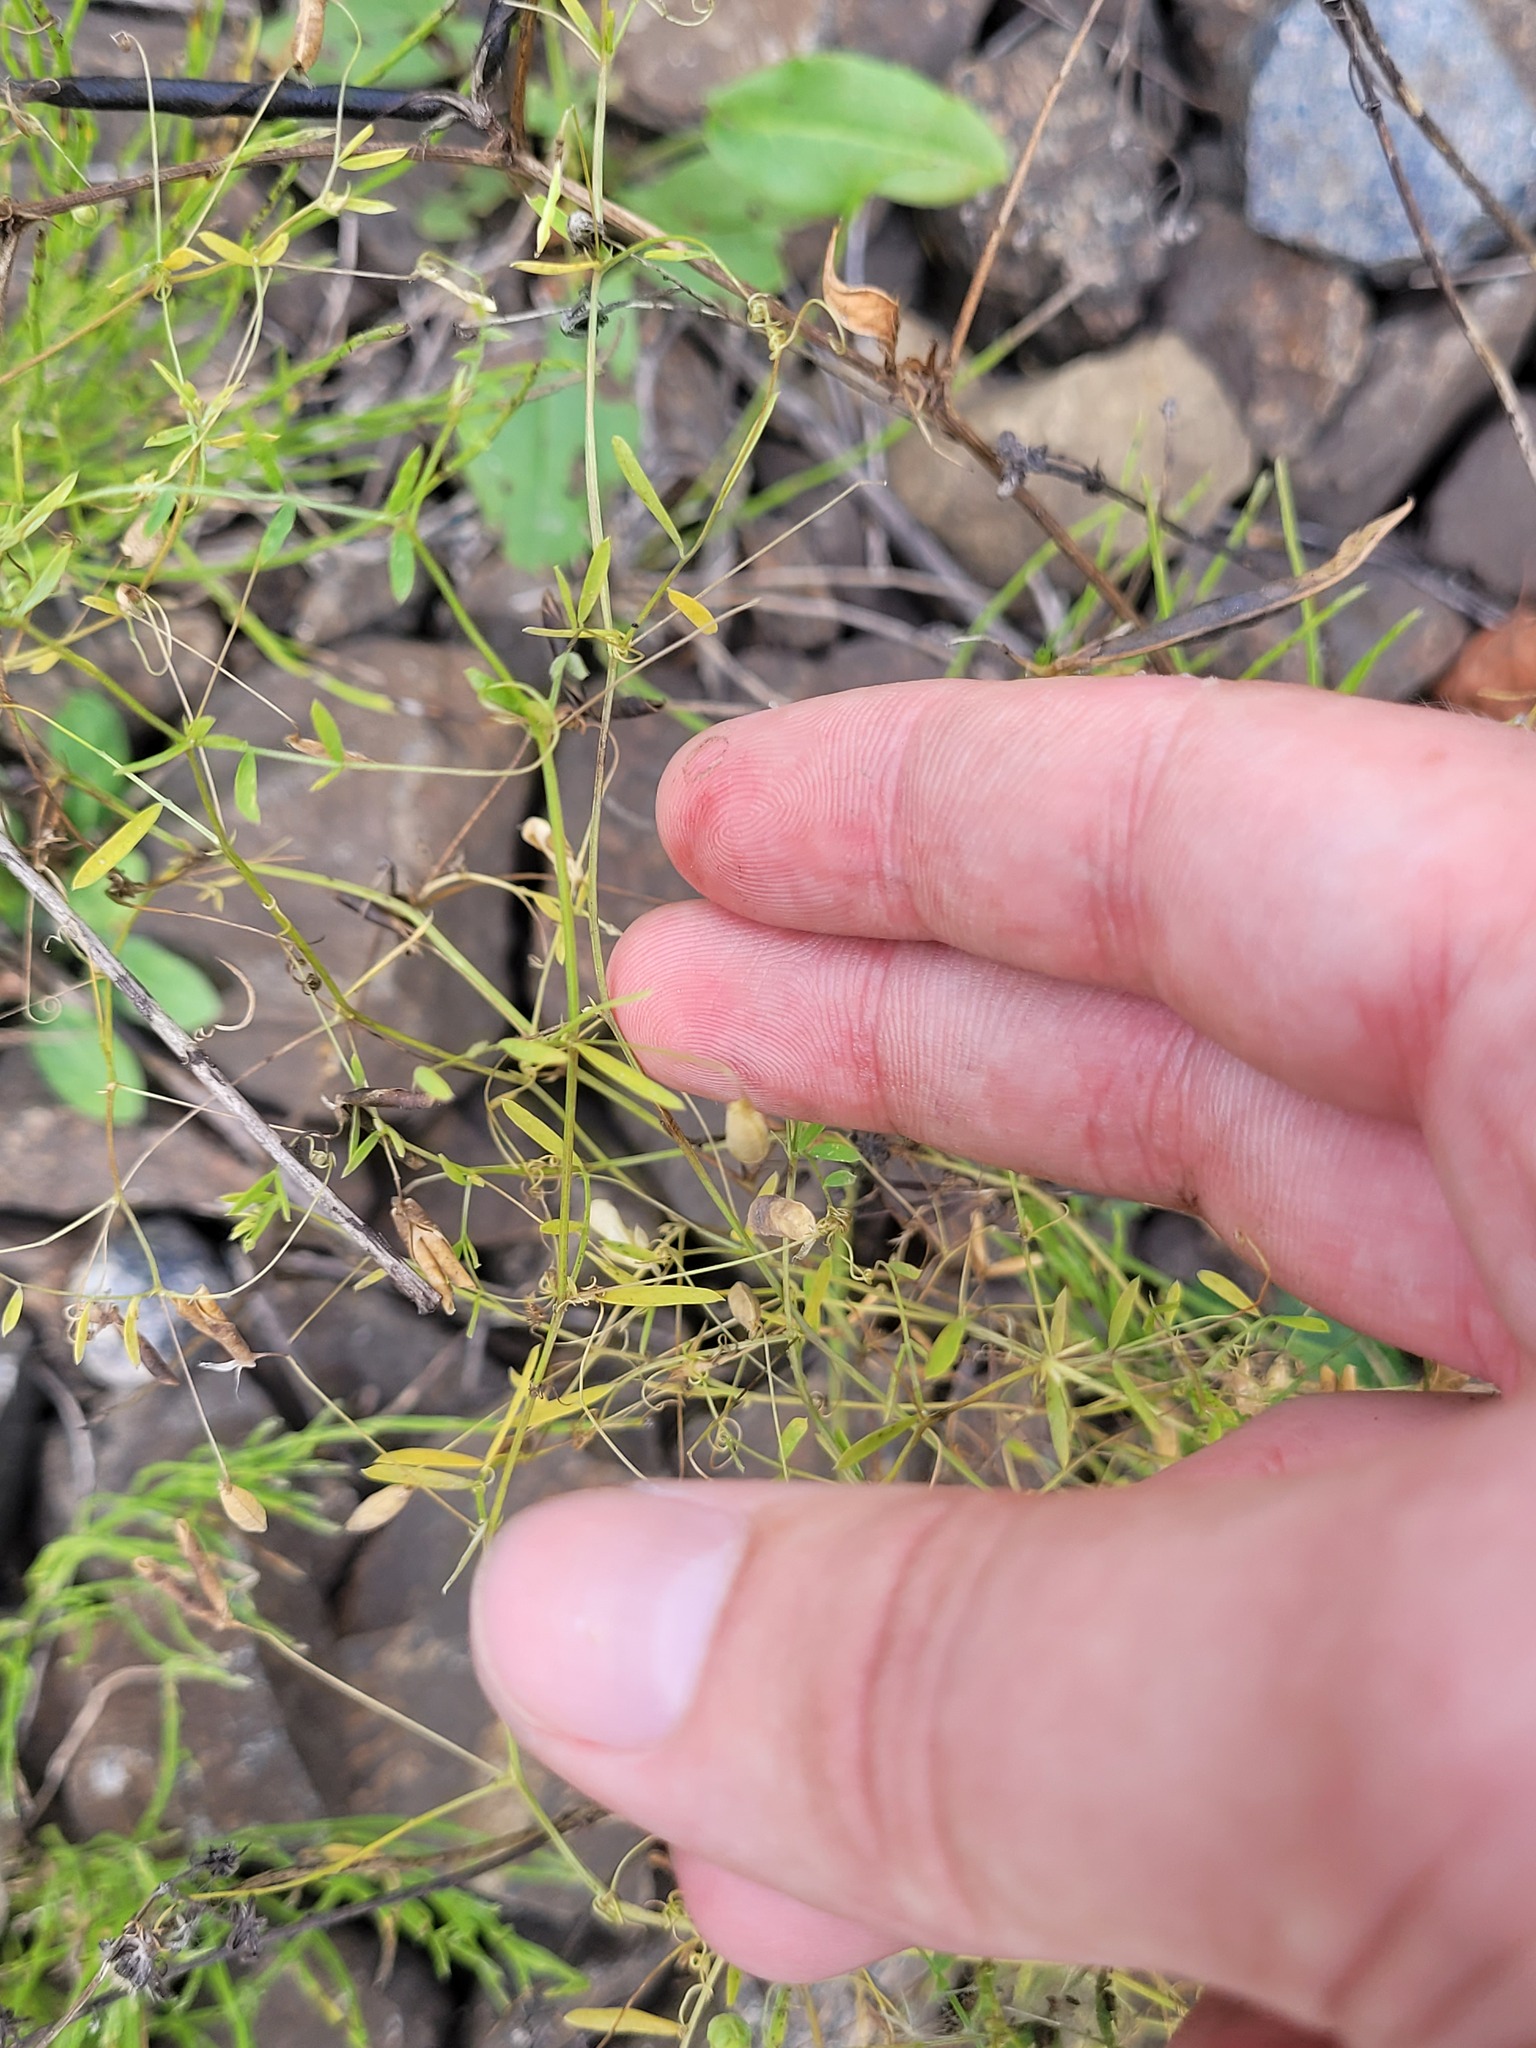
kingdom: Plantae
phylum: Tracheophyta
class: Magnoliopsida
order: Fabales
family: Fabaceae
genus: Vicia
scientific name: Vicia tetrasperma
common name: Smooth tare
